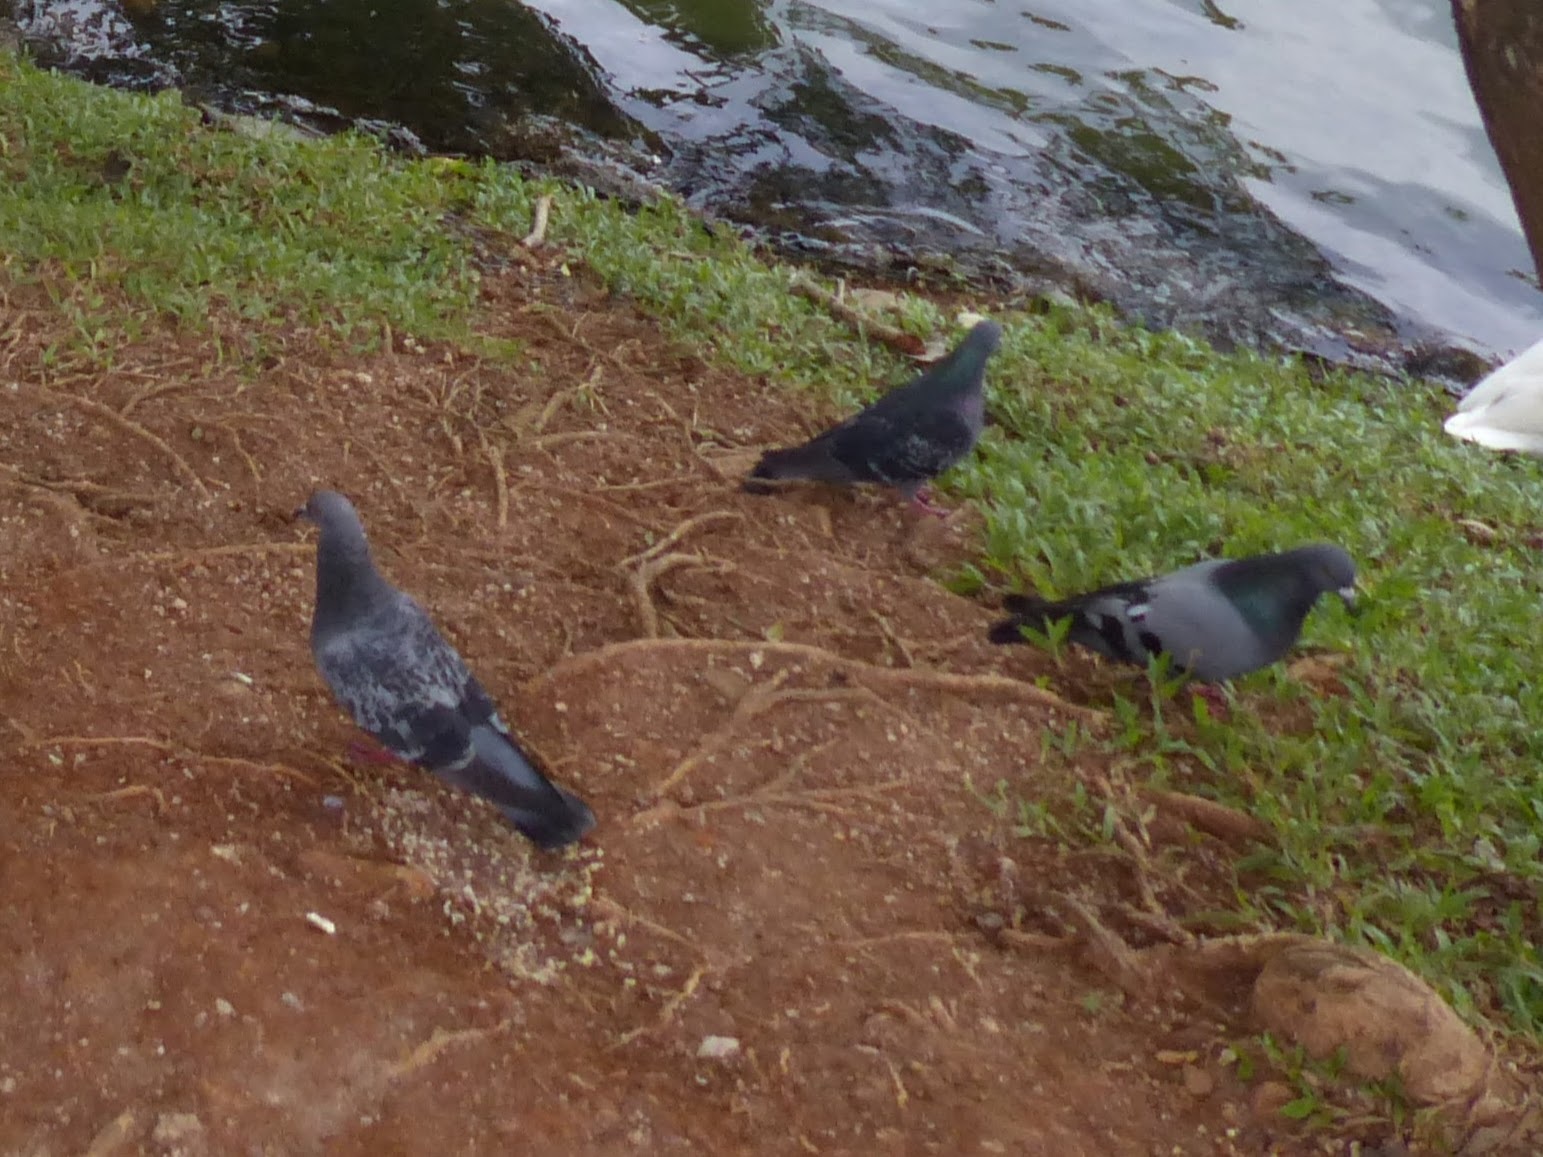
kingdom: Animalia
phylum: Chordata
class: Aves
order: Columbiformes
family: Columbidae
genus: Columba
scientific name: Columba livia
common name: Rock pigeon
